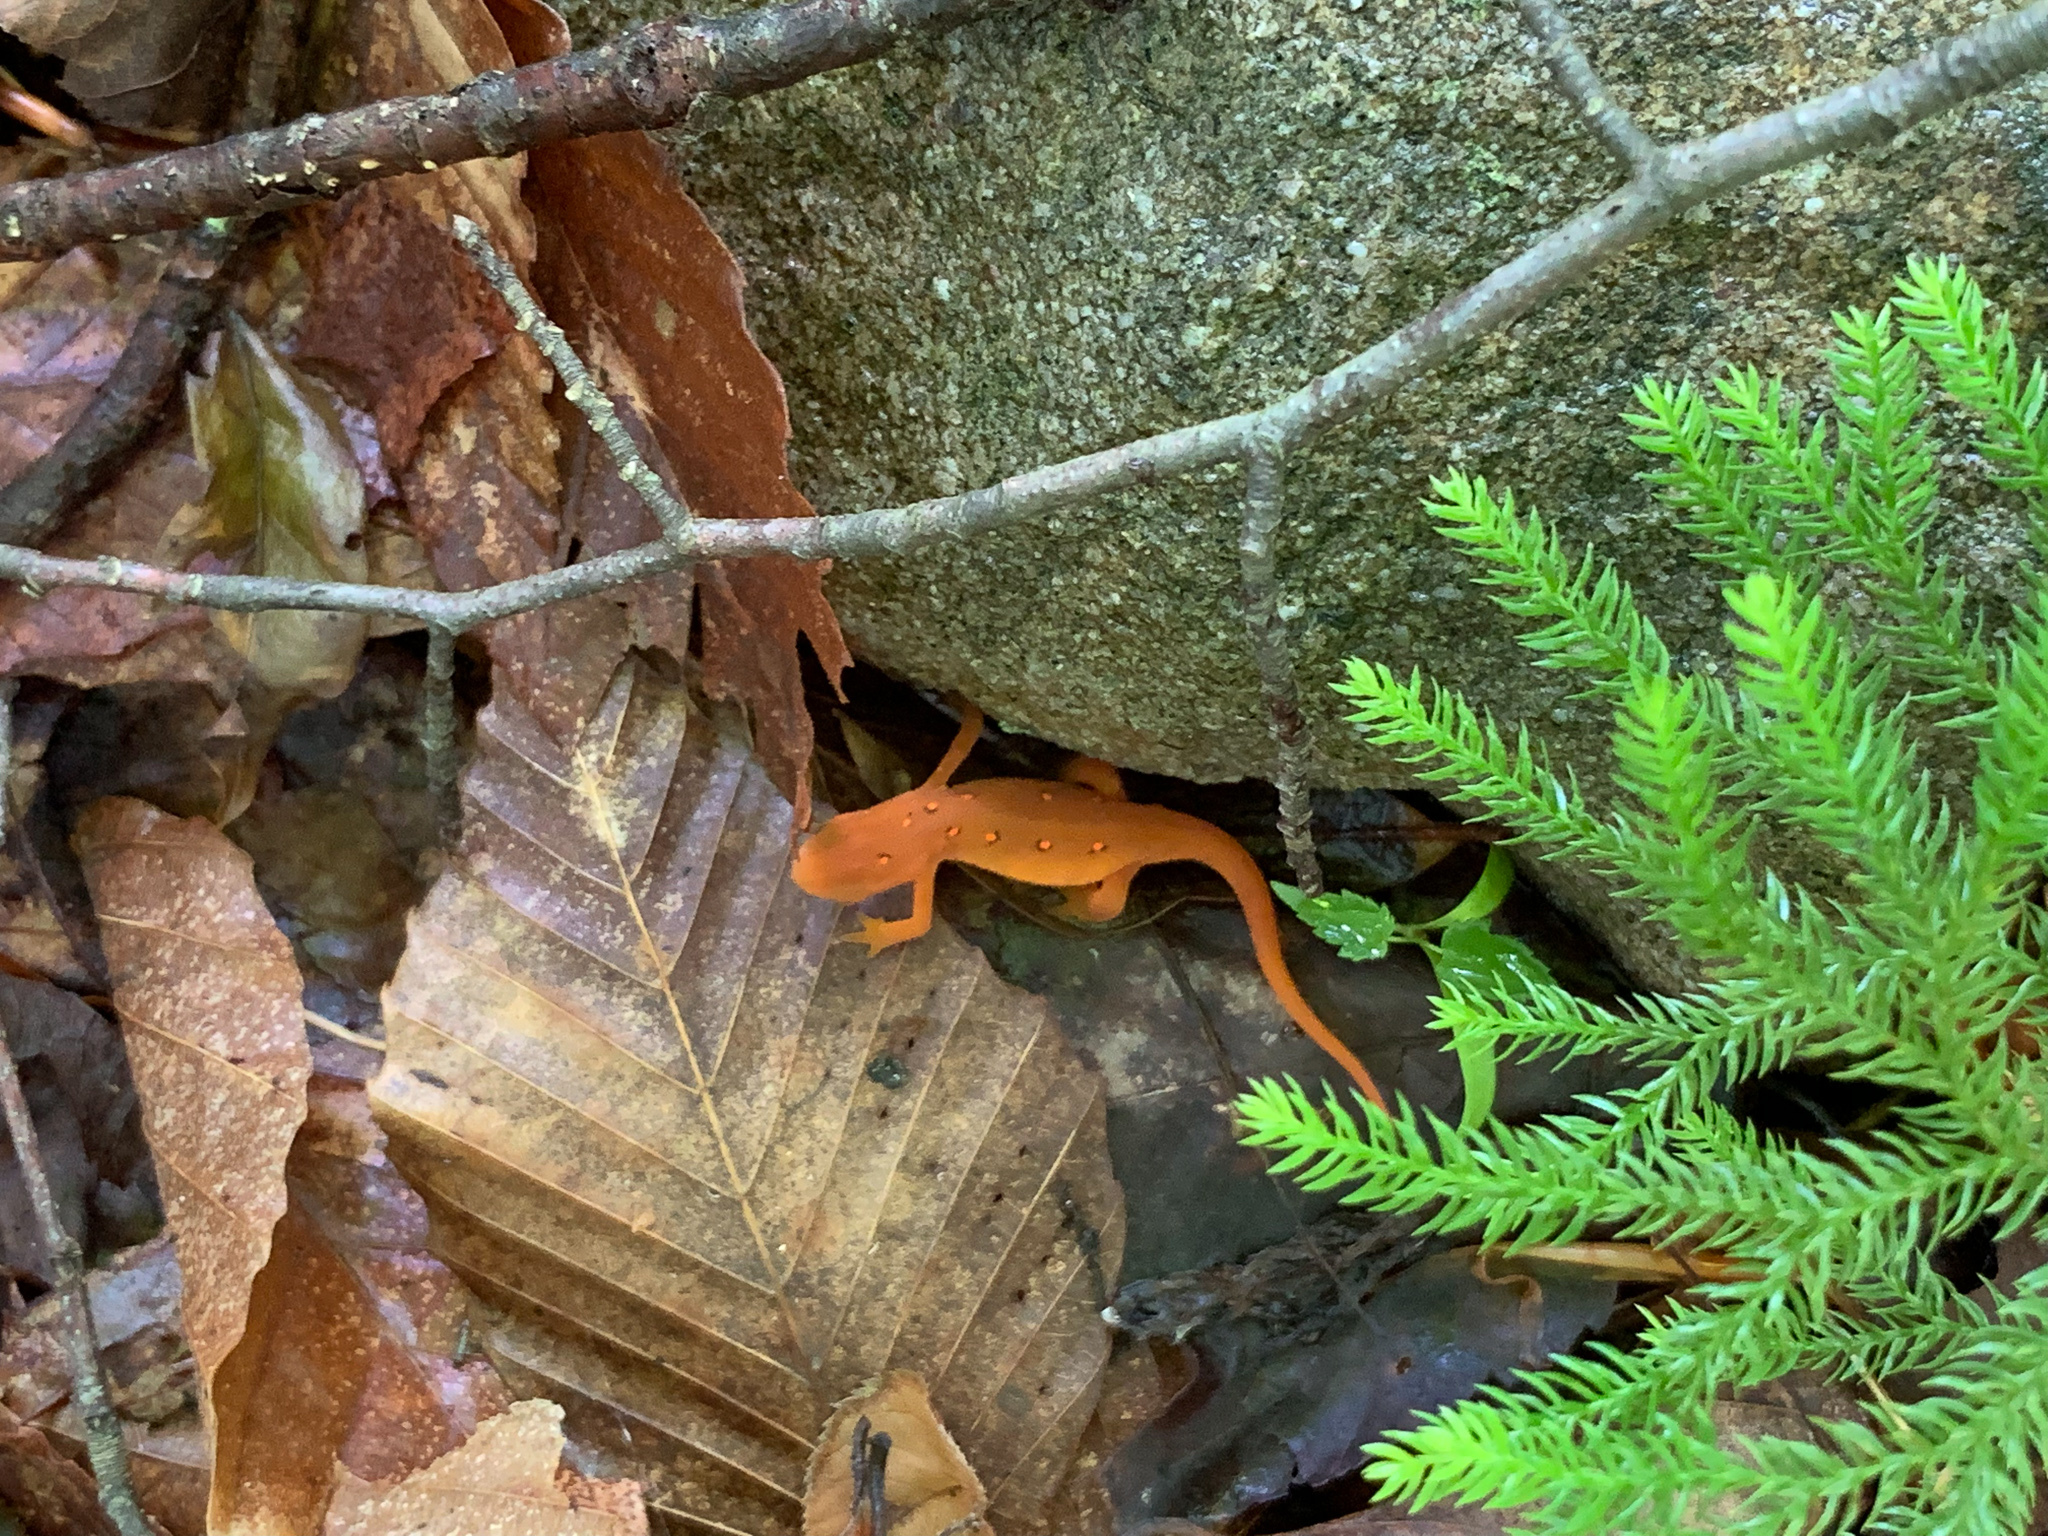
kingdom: Animalia
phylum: Chordata
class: Amphibia
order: Caudata
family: Salamandridae
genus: Notophthalmus
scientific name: Notophthalmus viridescens
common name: Eastern newt
